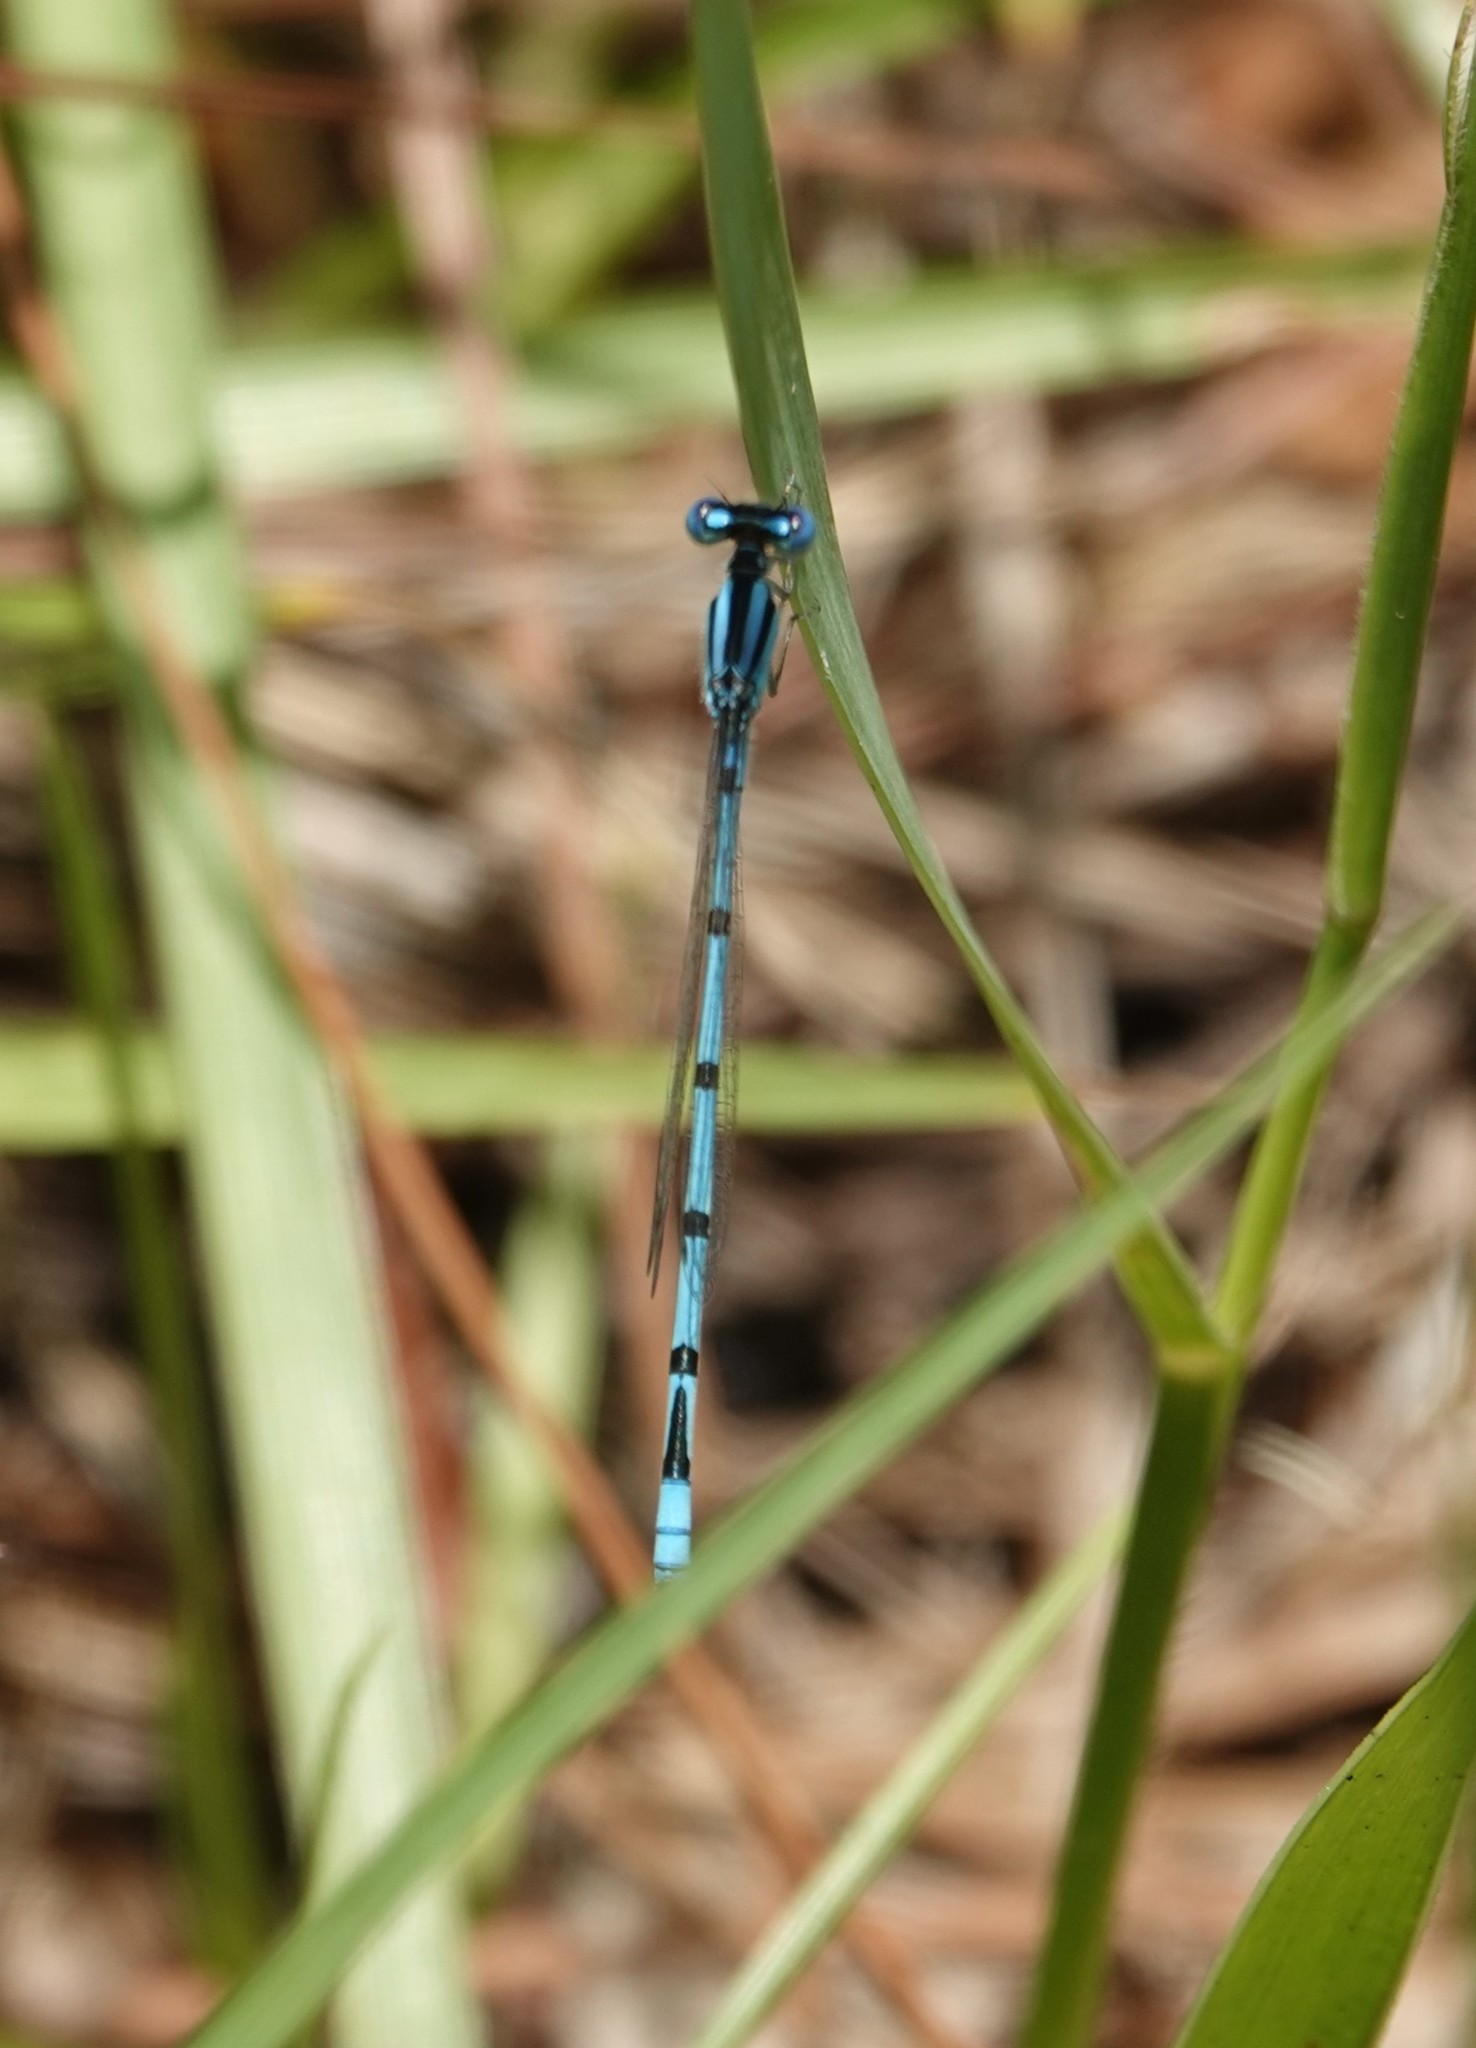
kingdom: Animalia
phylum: Arthropoda
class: Insecta
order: Odonata
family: Coenagrionidae
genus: Enallagma
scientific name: Enallagma doubledayi
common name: Atlantic bluet
